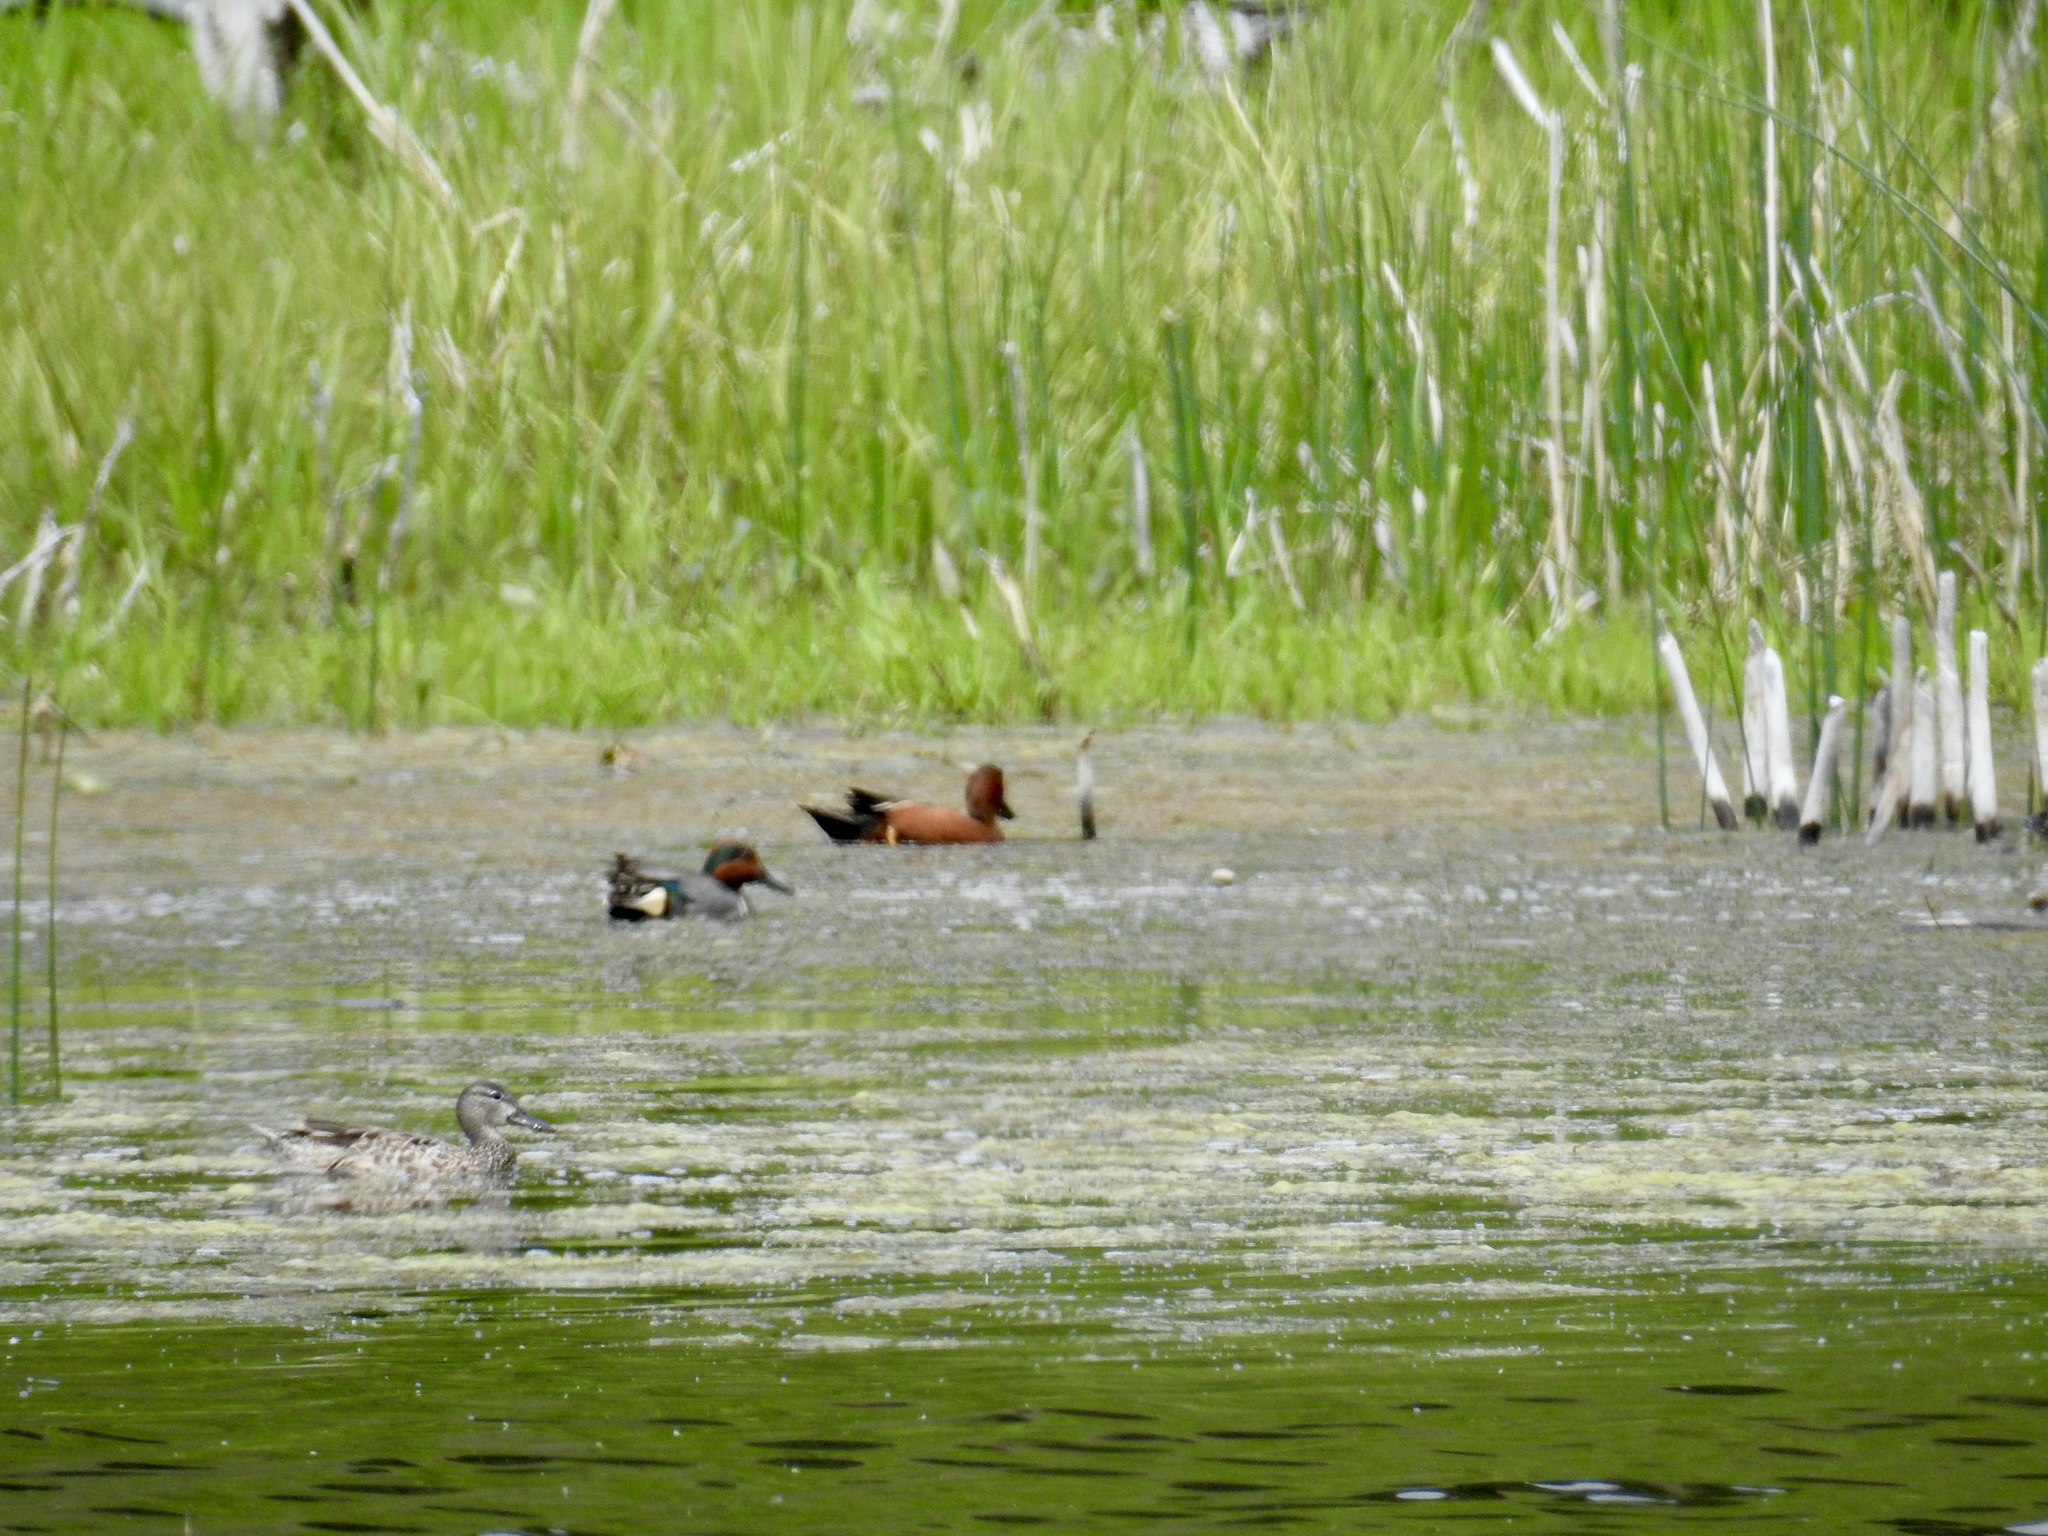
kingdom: Animalia
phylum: Chordata
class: Aves
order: Anseriformes
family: Anatidae
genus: Spatula
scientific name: Spatula cyanoptera
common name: Cinnamon teal
